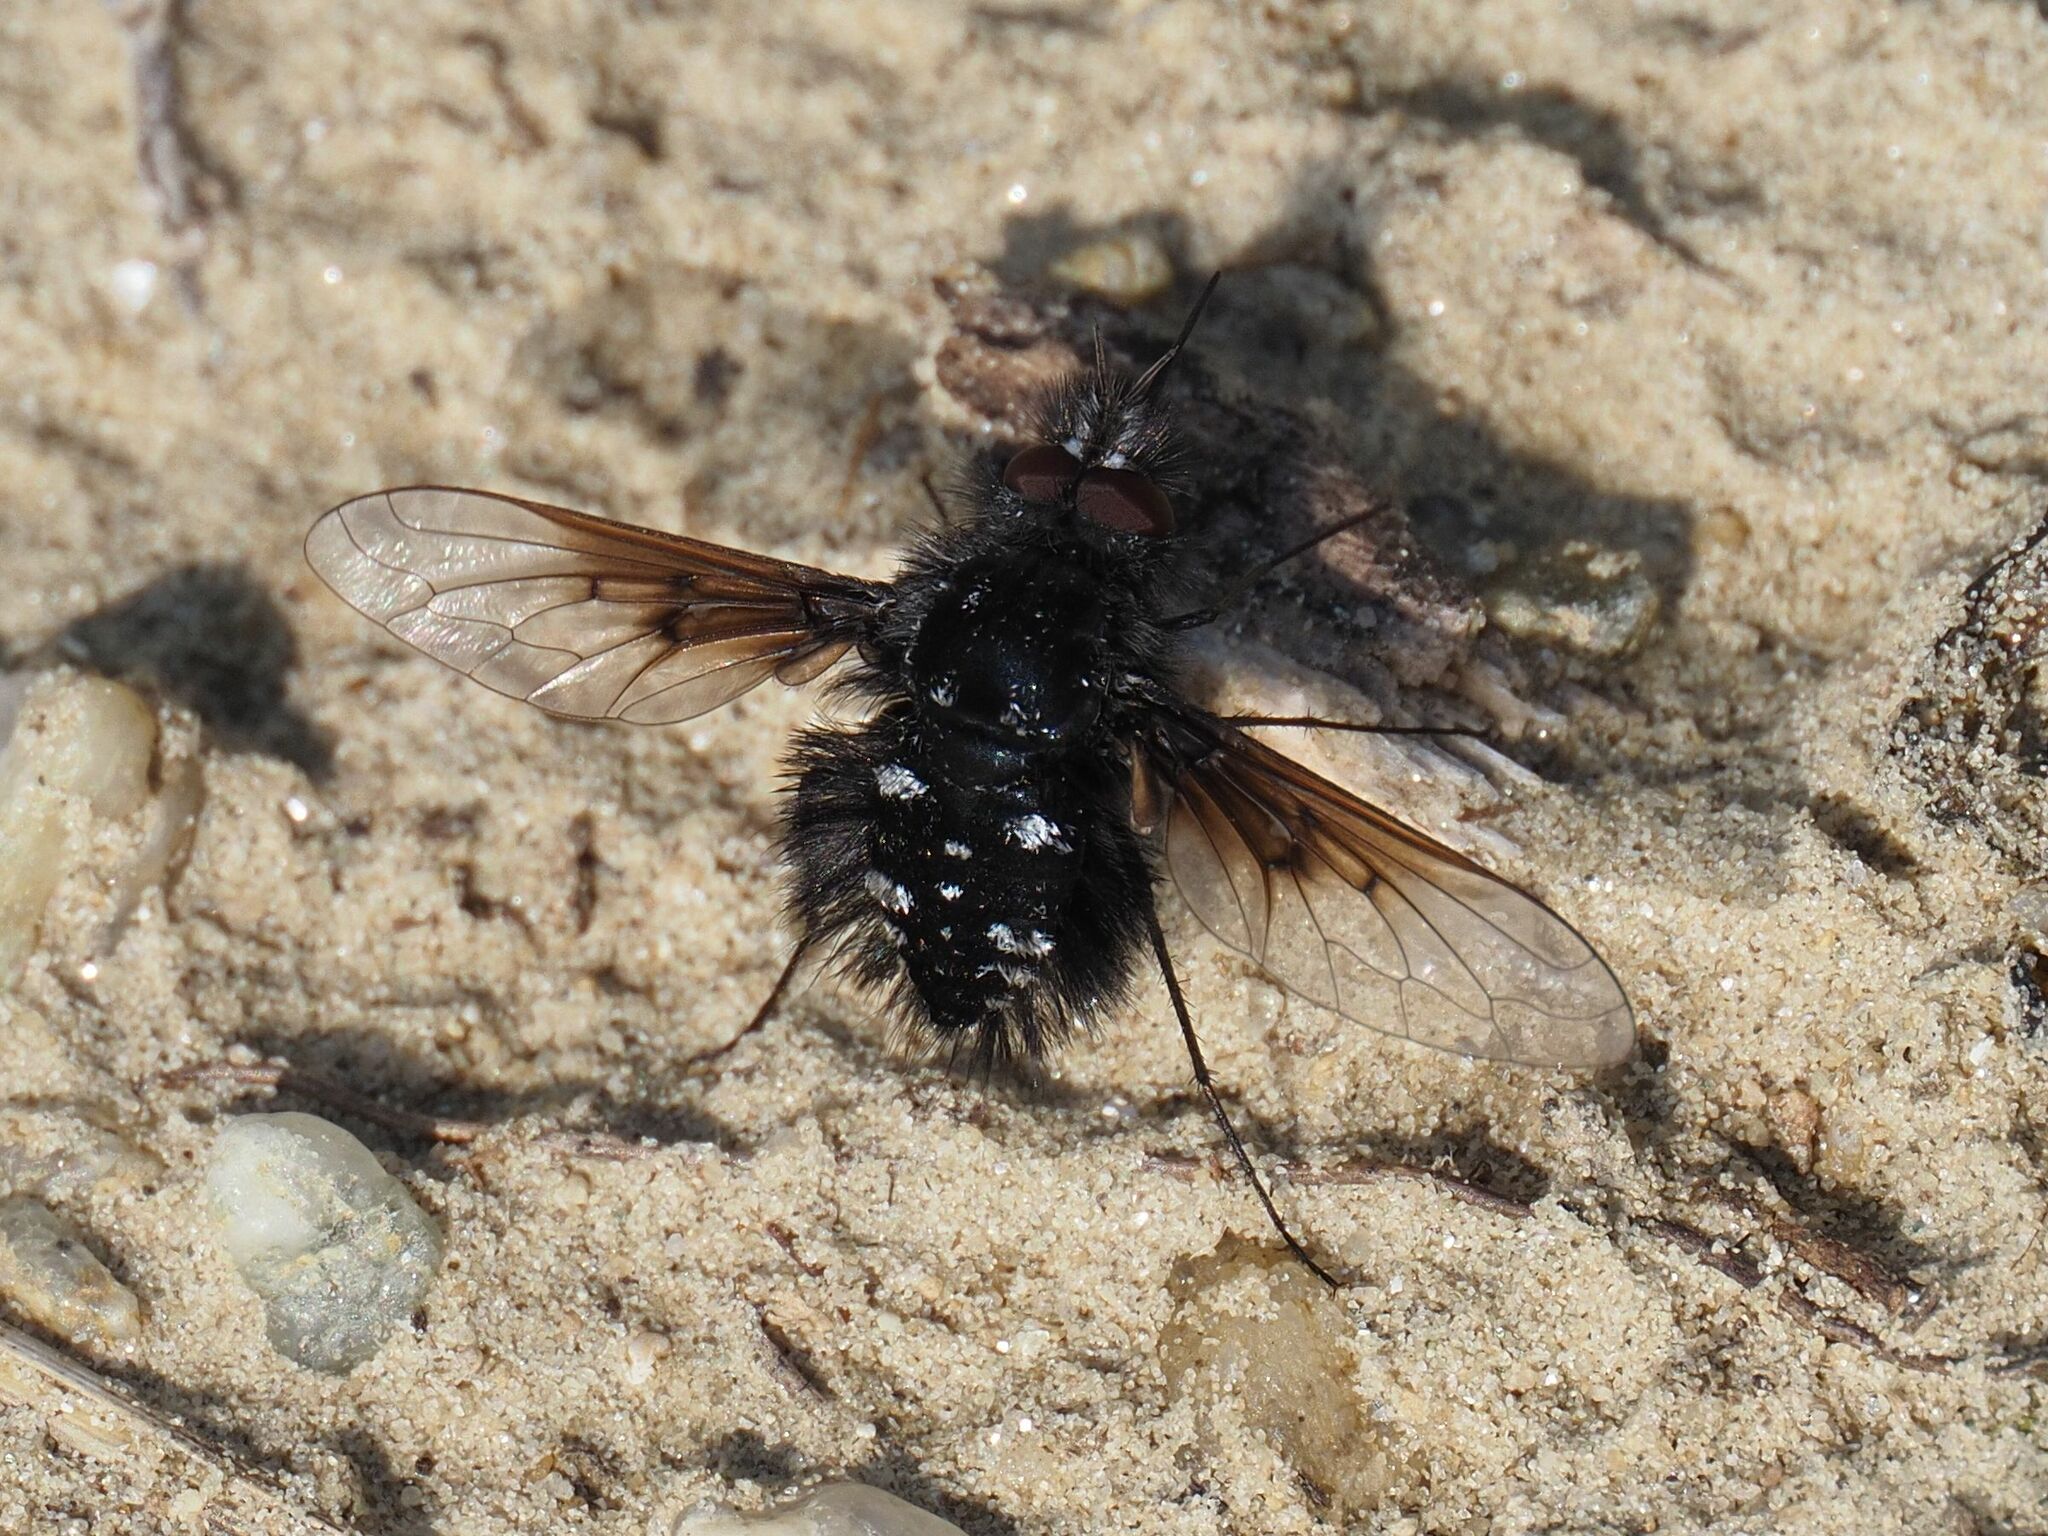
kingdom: Animalia
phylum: Arthropoda
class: Insecta
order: Diptera
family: Bombyliidae
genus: Bombylella
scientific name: Bombylella atra
